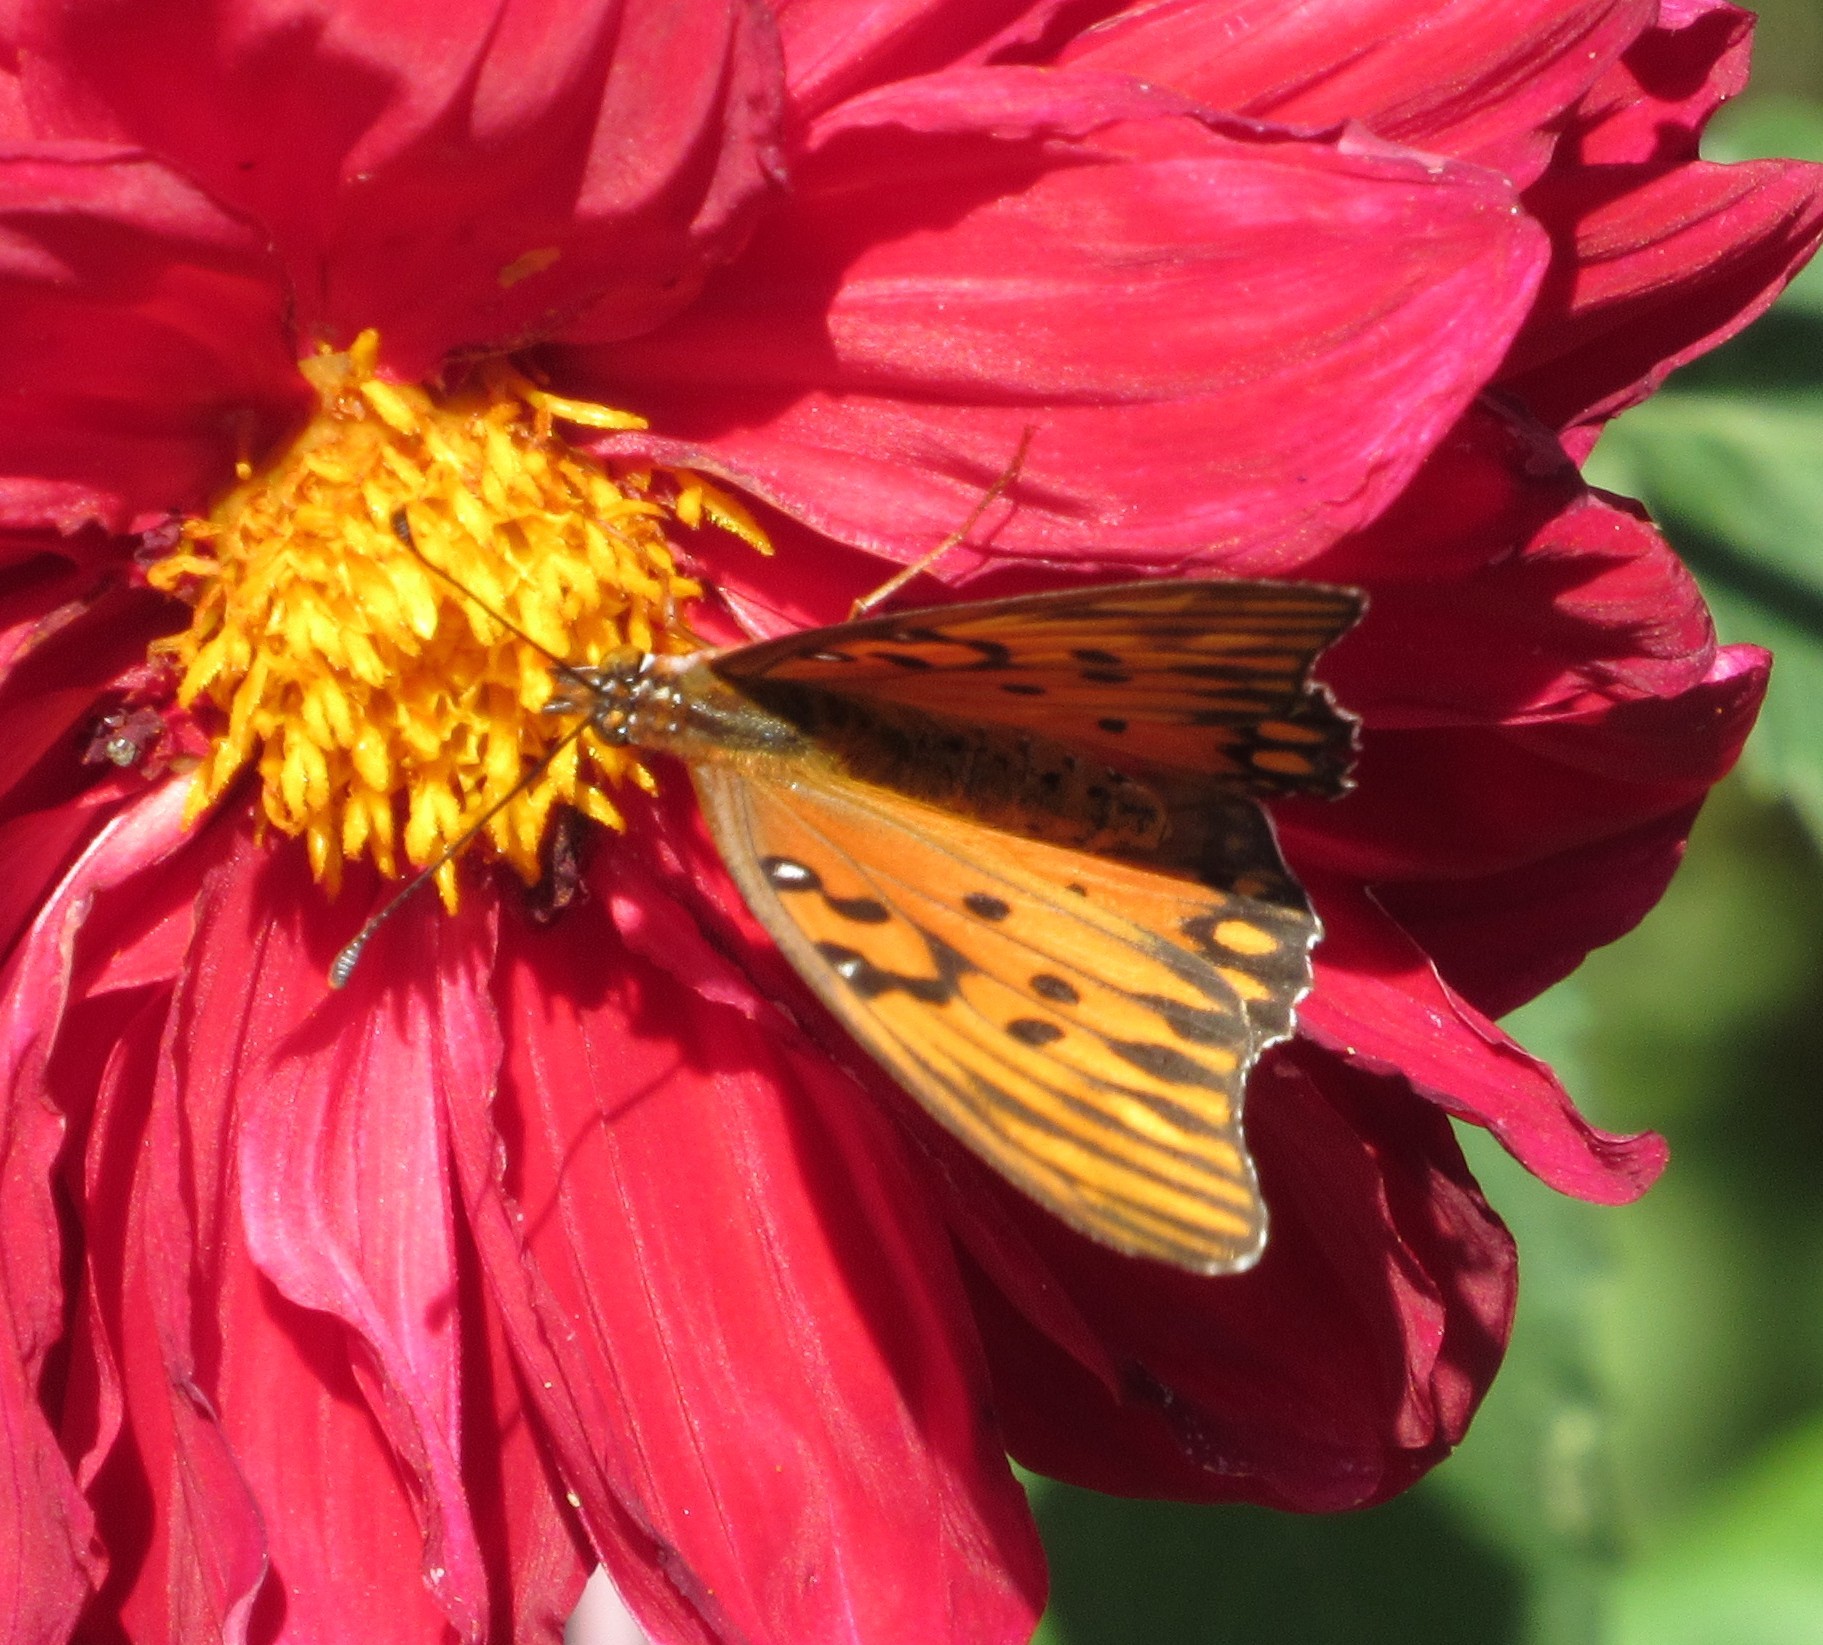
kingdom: Animalia
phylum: Arthropoda
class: Insecta
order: Lepidoptera
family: Nymphalidae
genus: Dione
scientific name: Dione vanillae
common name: Gulf fritillary
